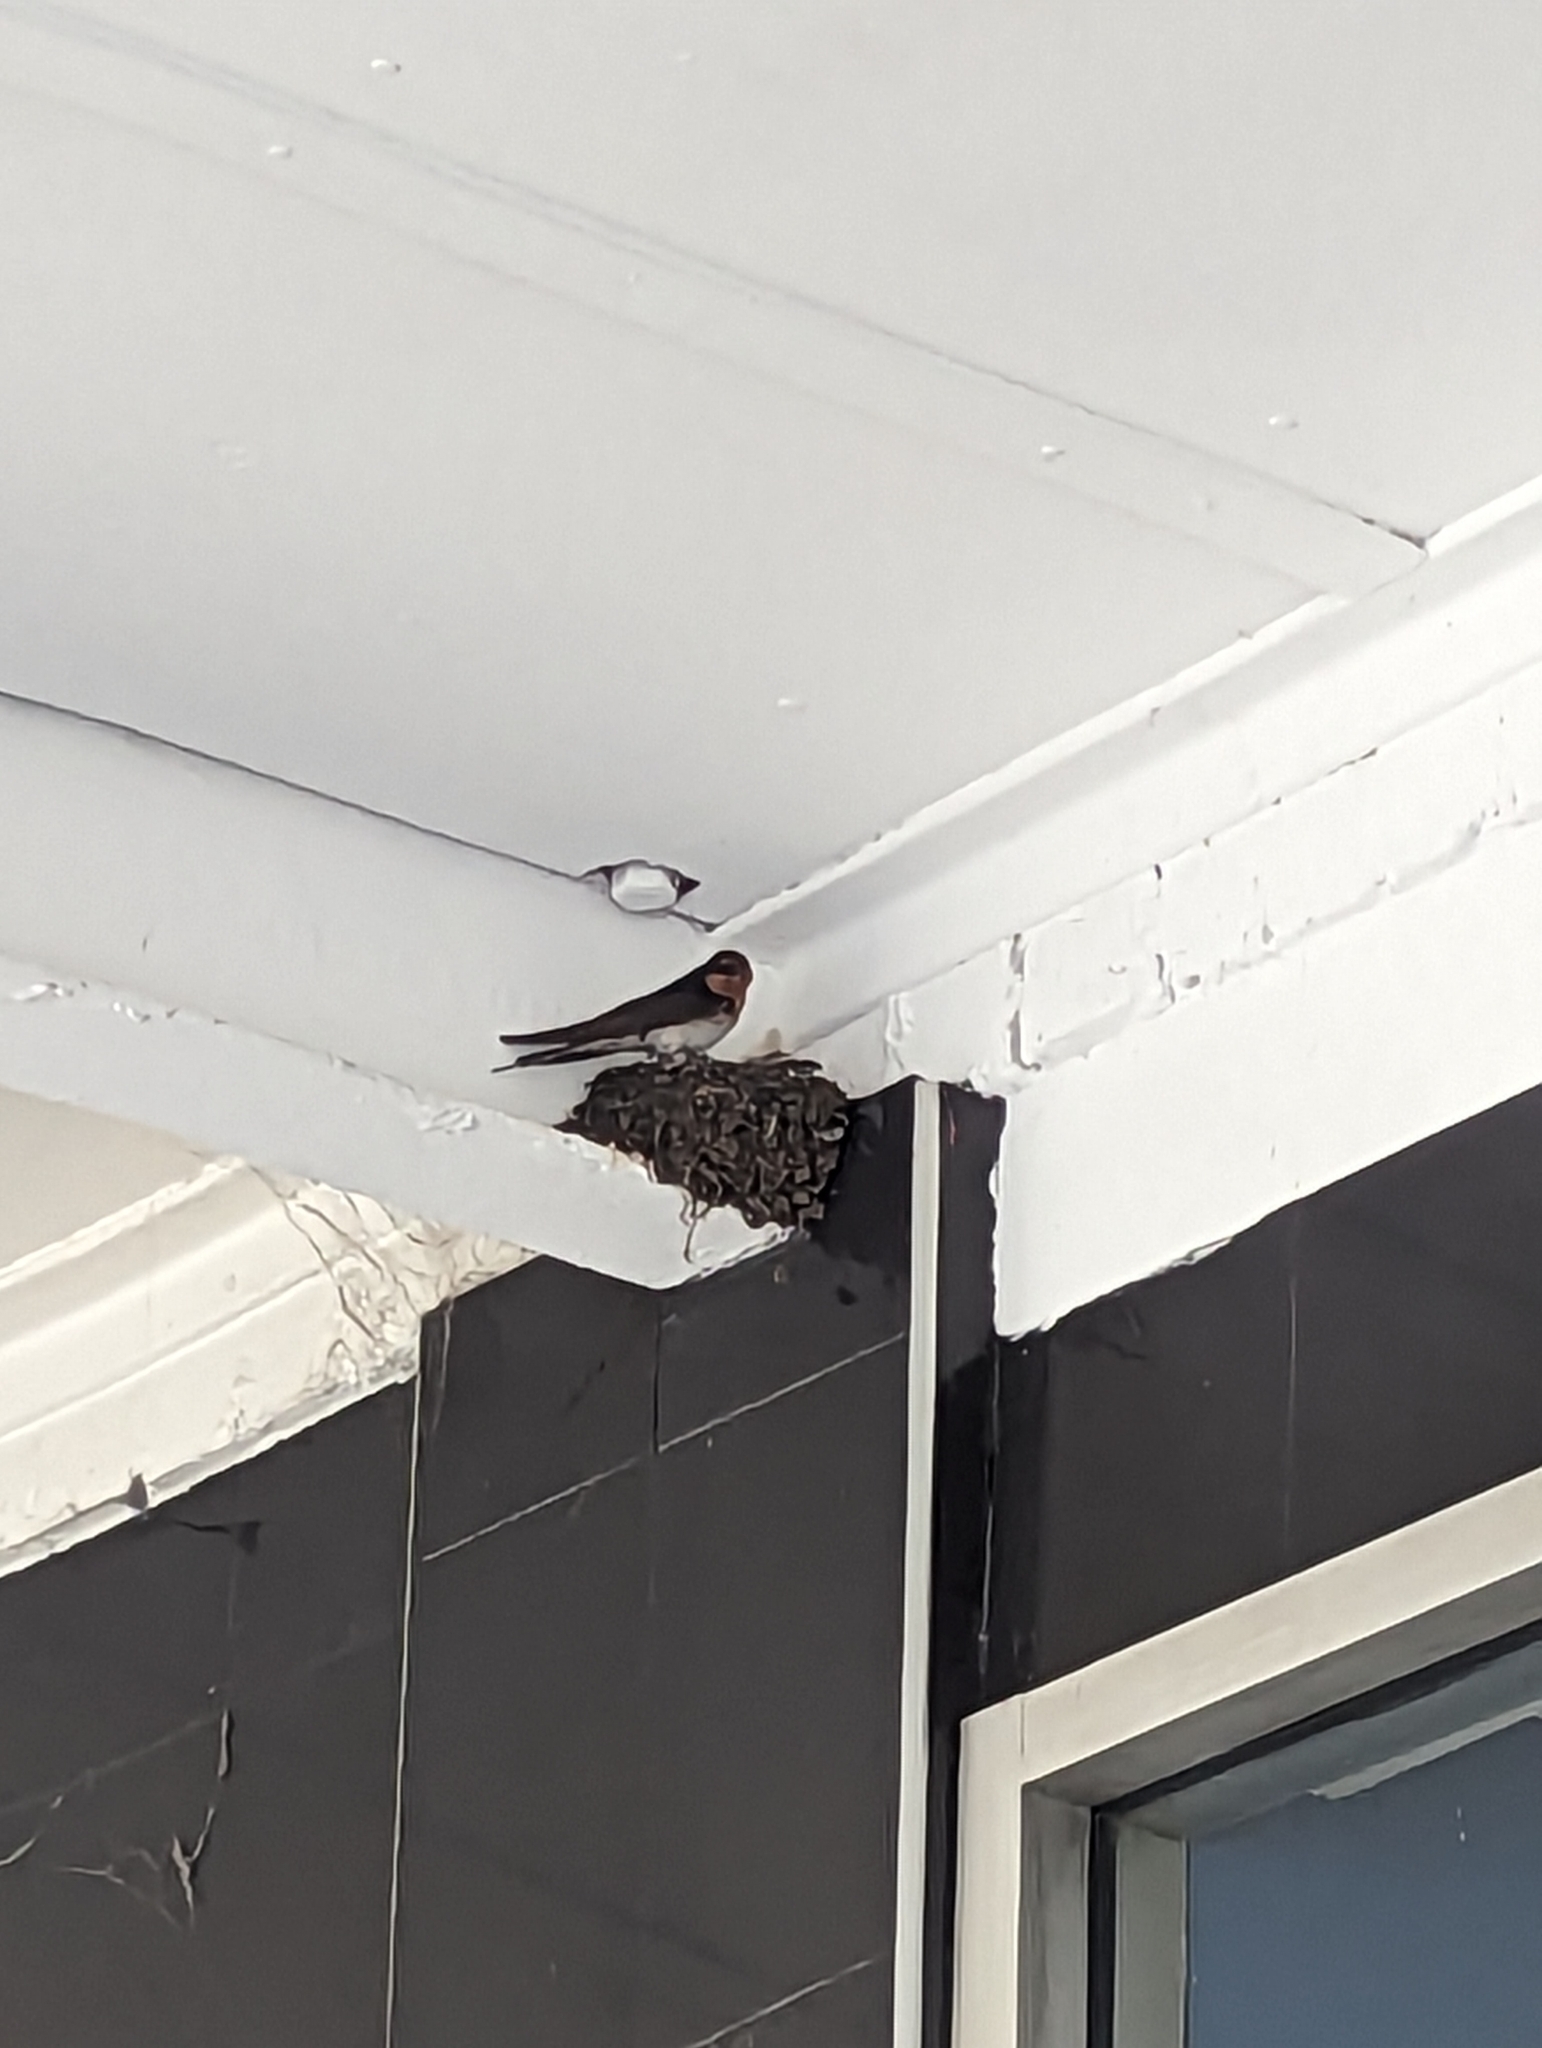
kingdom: Animalia
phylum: Chordata
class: Aves
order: Passeriformes
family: Hirundinidae
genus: Hirundo
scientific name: Hirundo neoxena
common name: Welcome swallow
